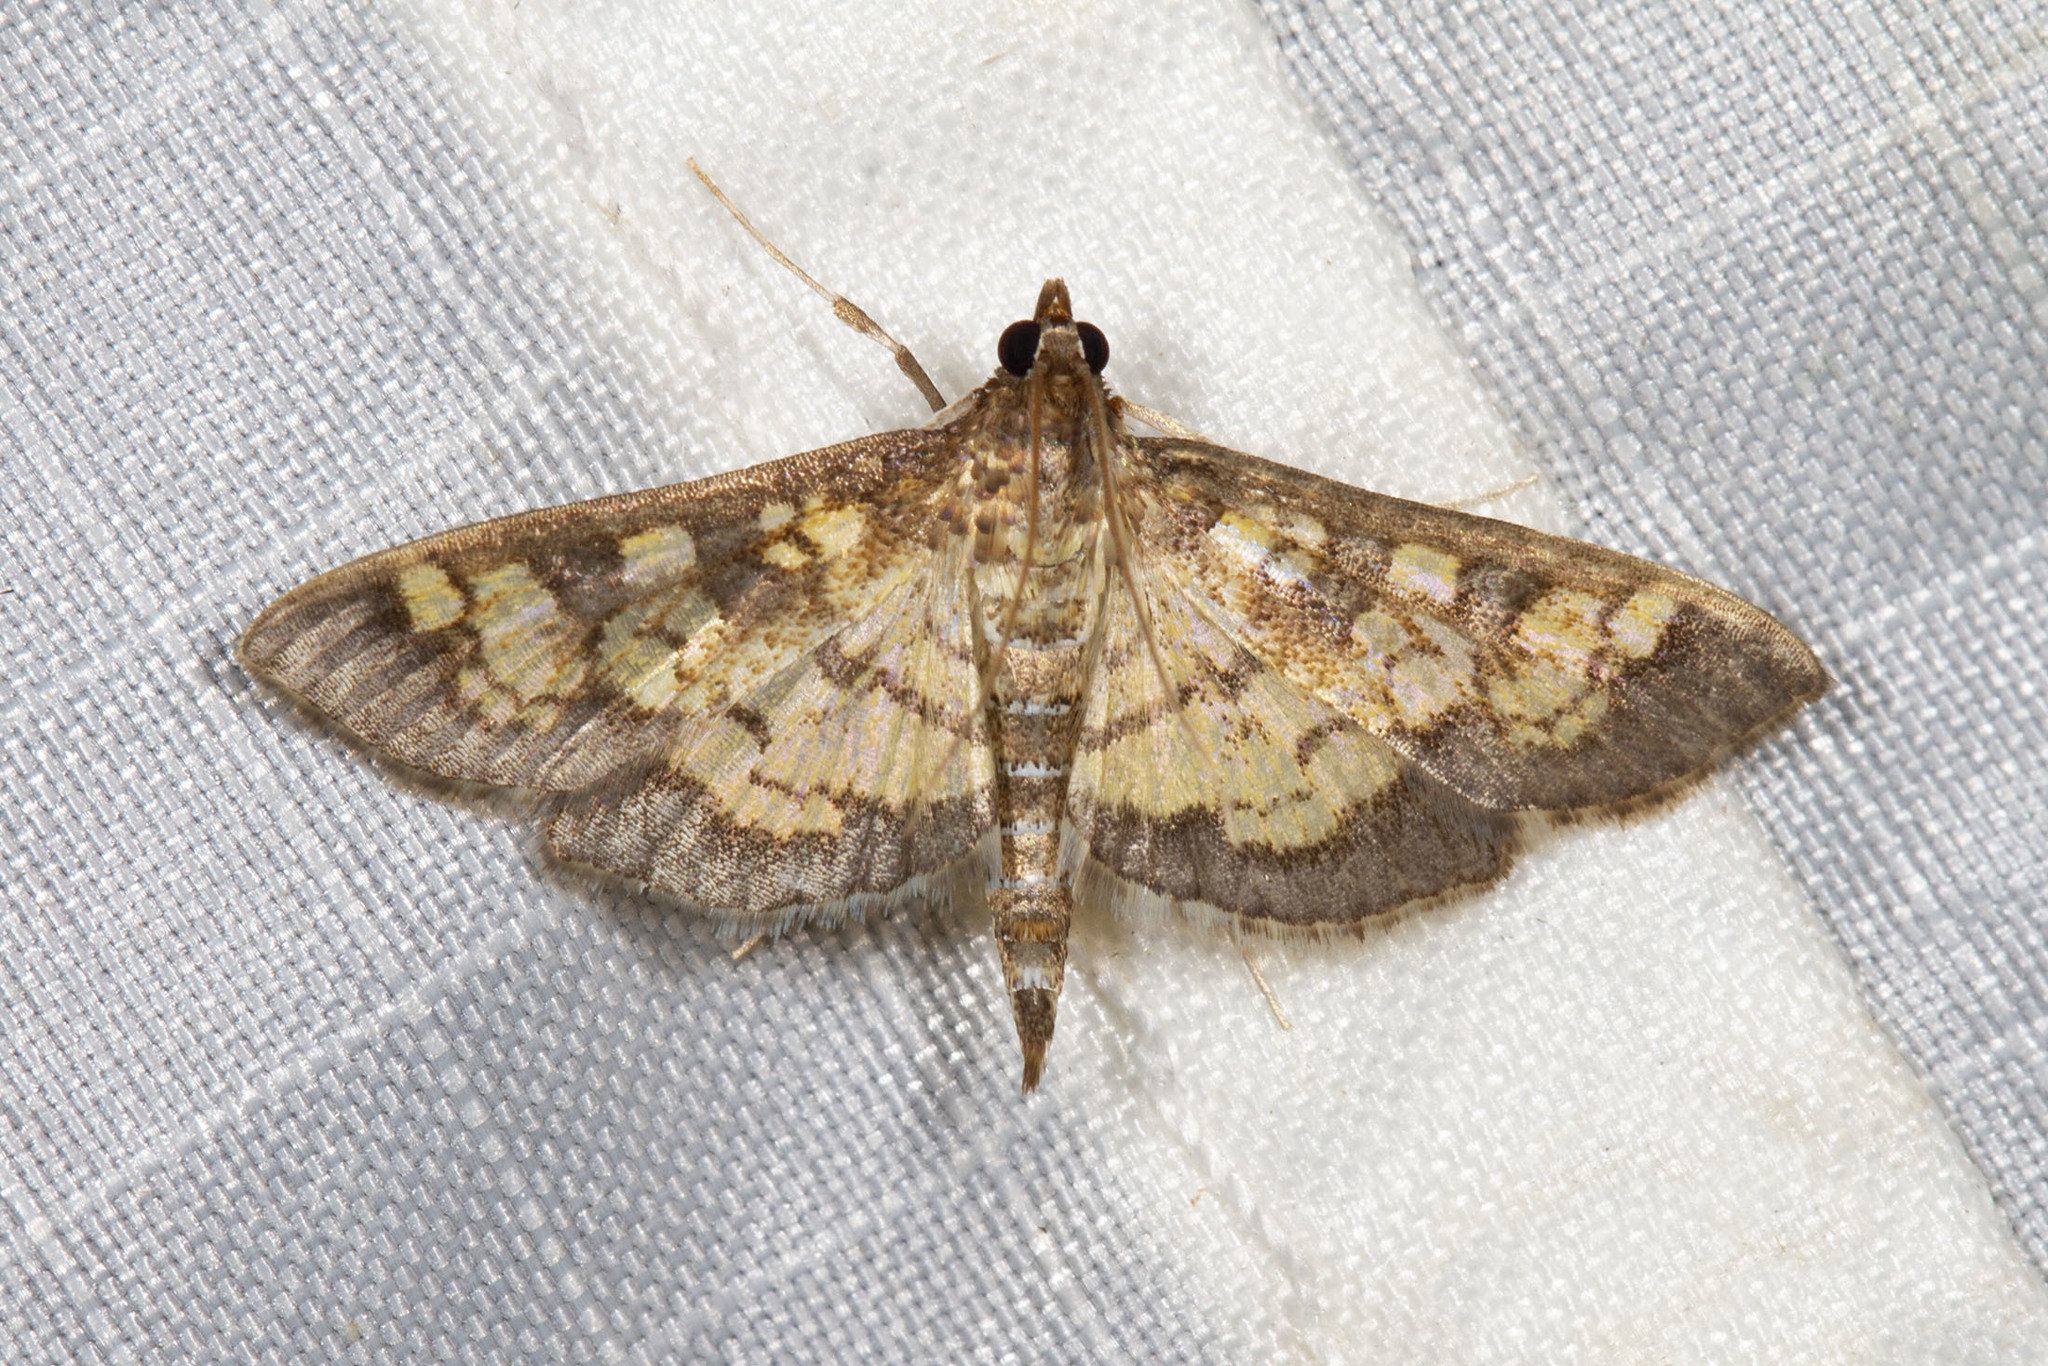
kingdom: Animalia
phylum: Arthropoda
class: Insecta
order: Lepidoptera
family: Crambidae
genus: Epipagis
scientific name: Epipagis adipaloides
